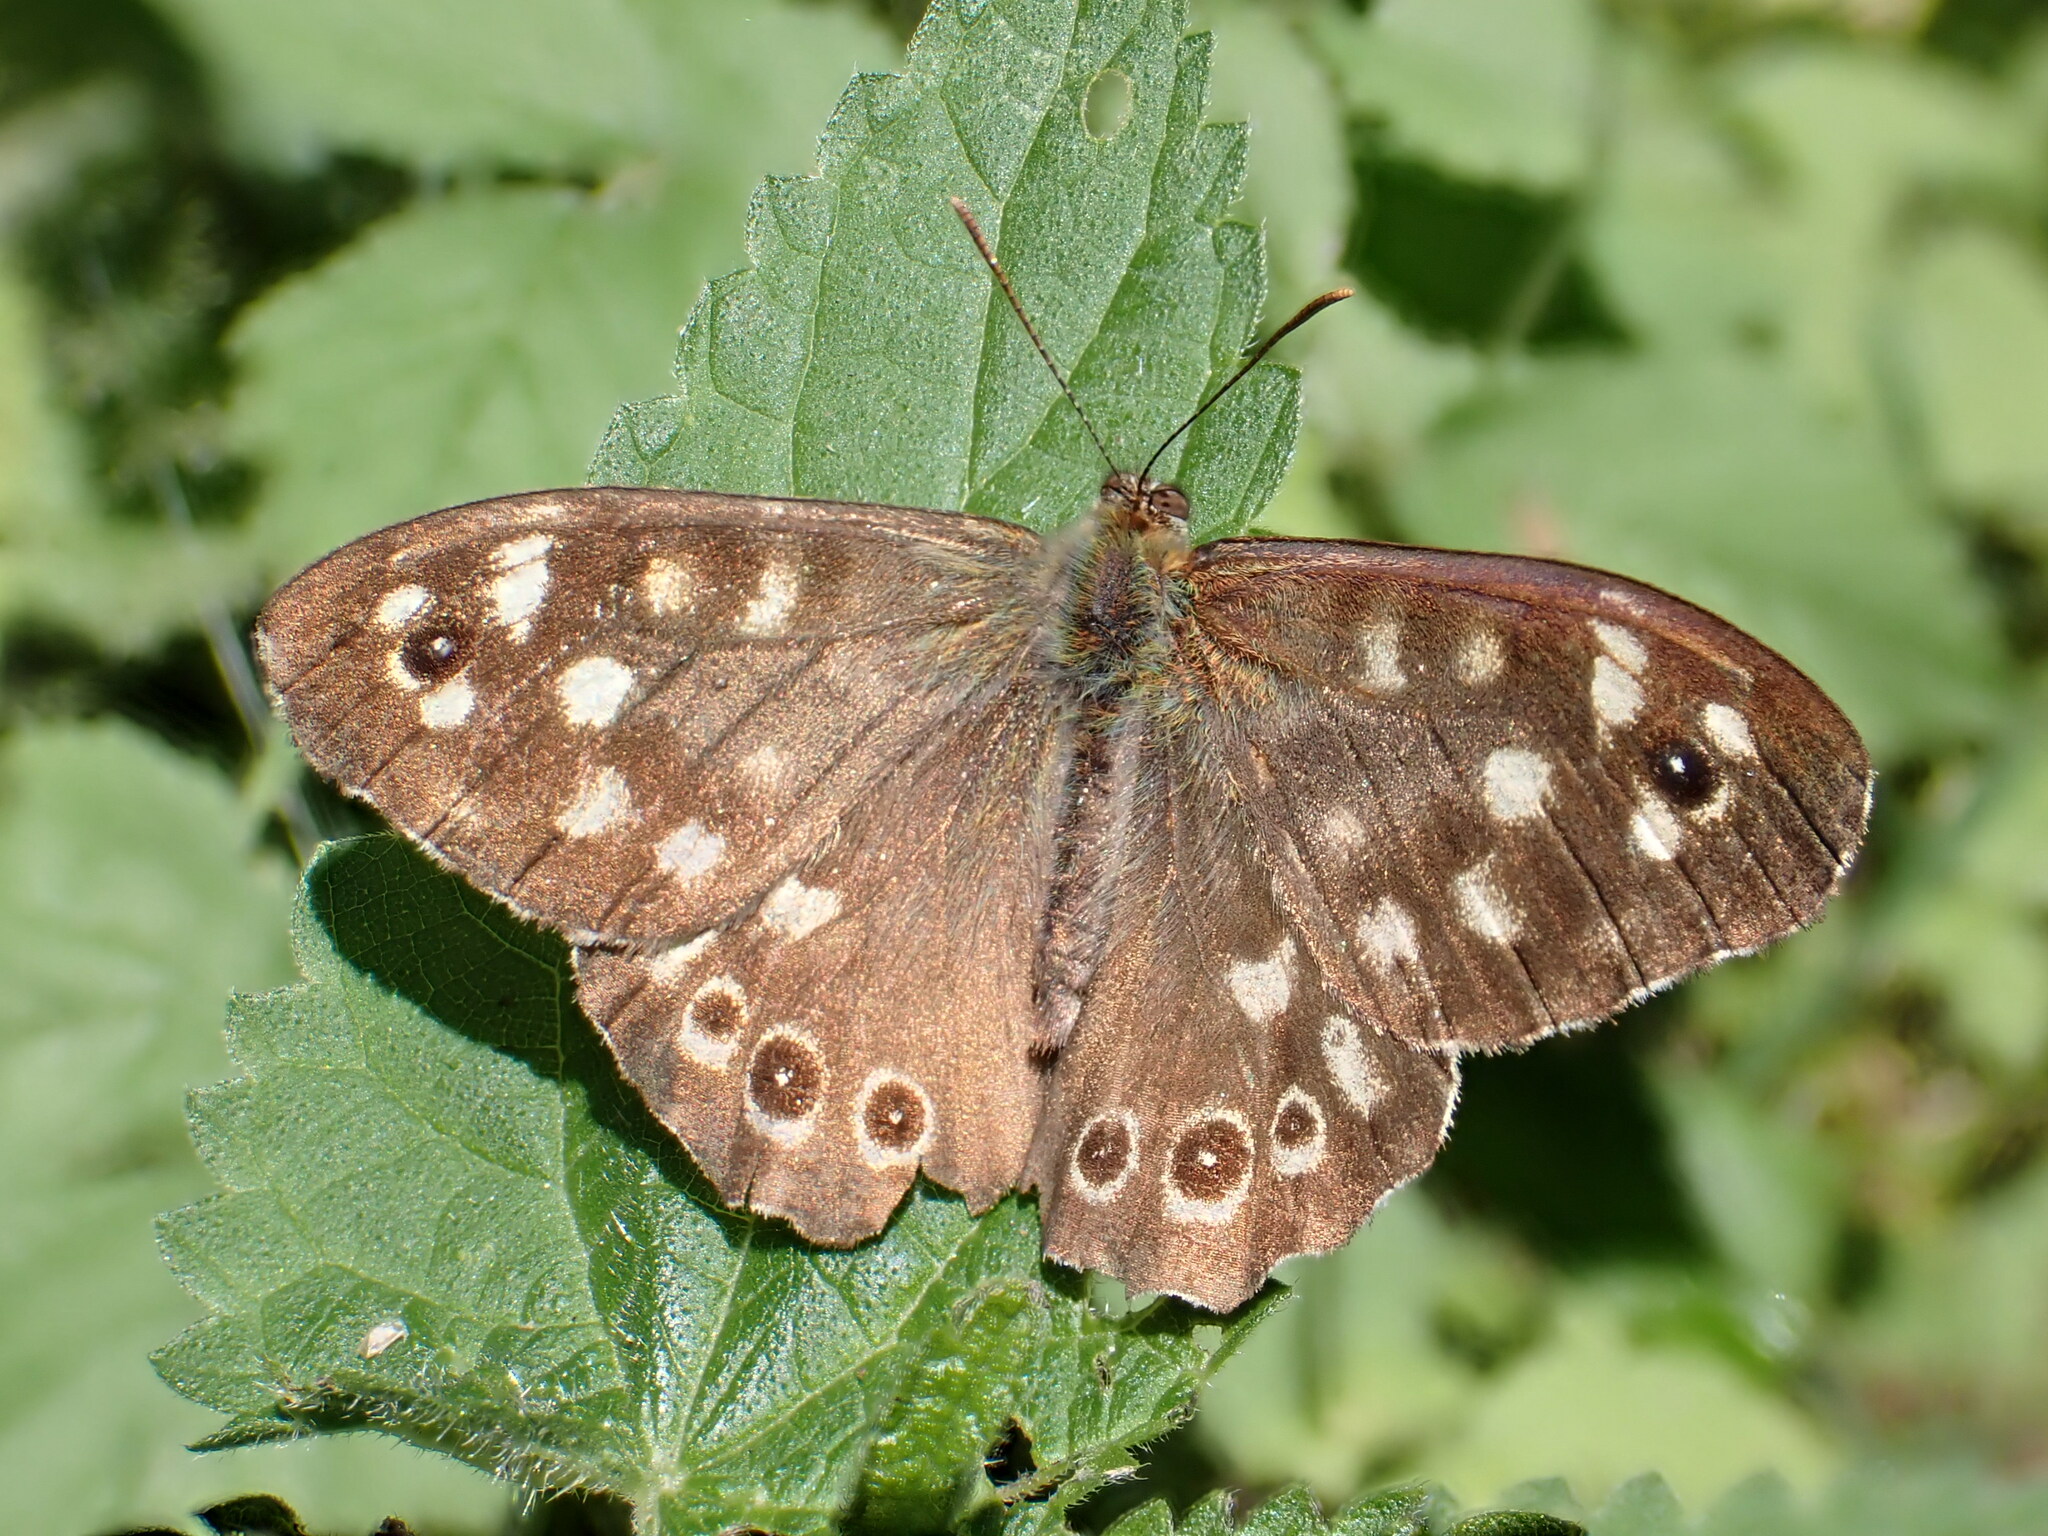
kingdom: Animalia
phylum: Arthropoda
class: Insecta
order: Lepidoptera
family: Nymphalidae
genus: Pararge
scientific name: Pararge aegeria
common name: Speckled wood
